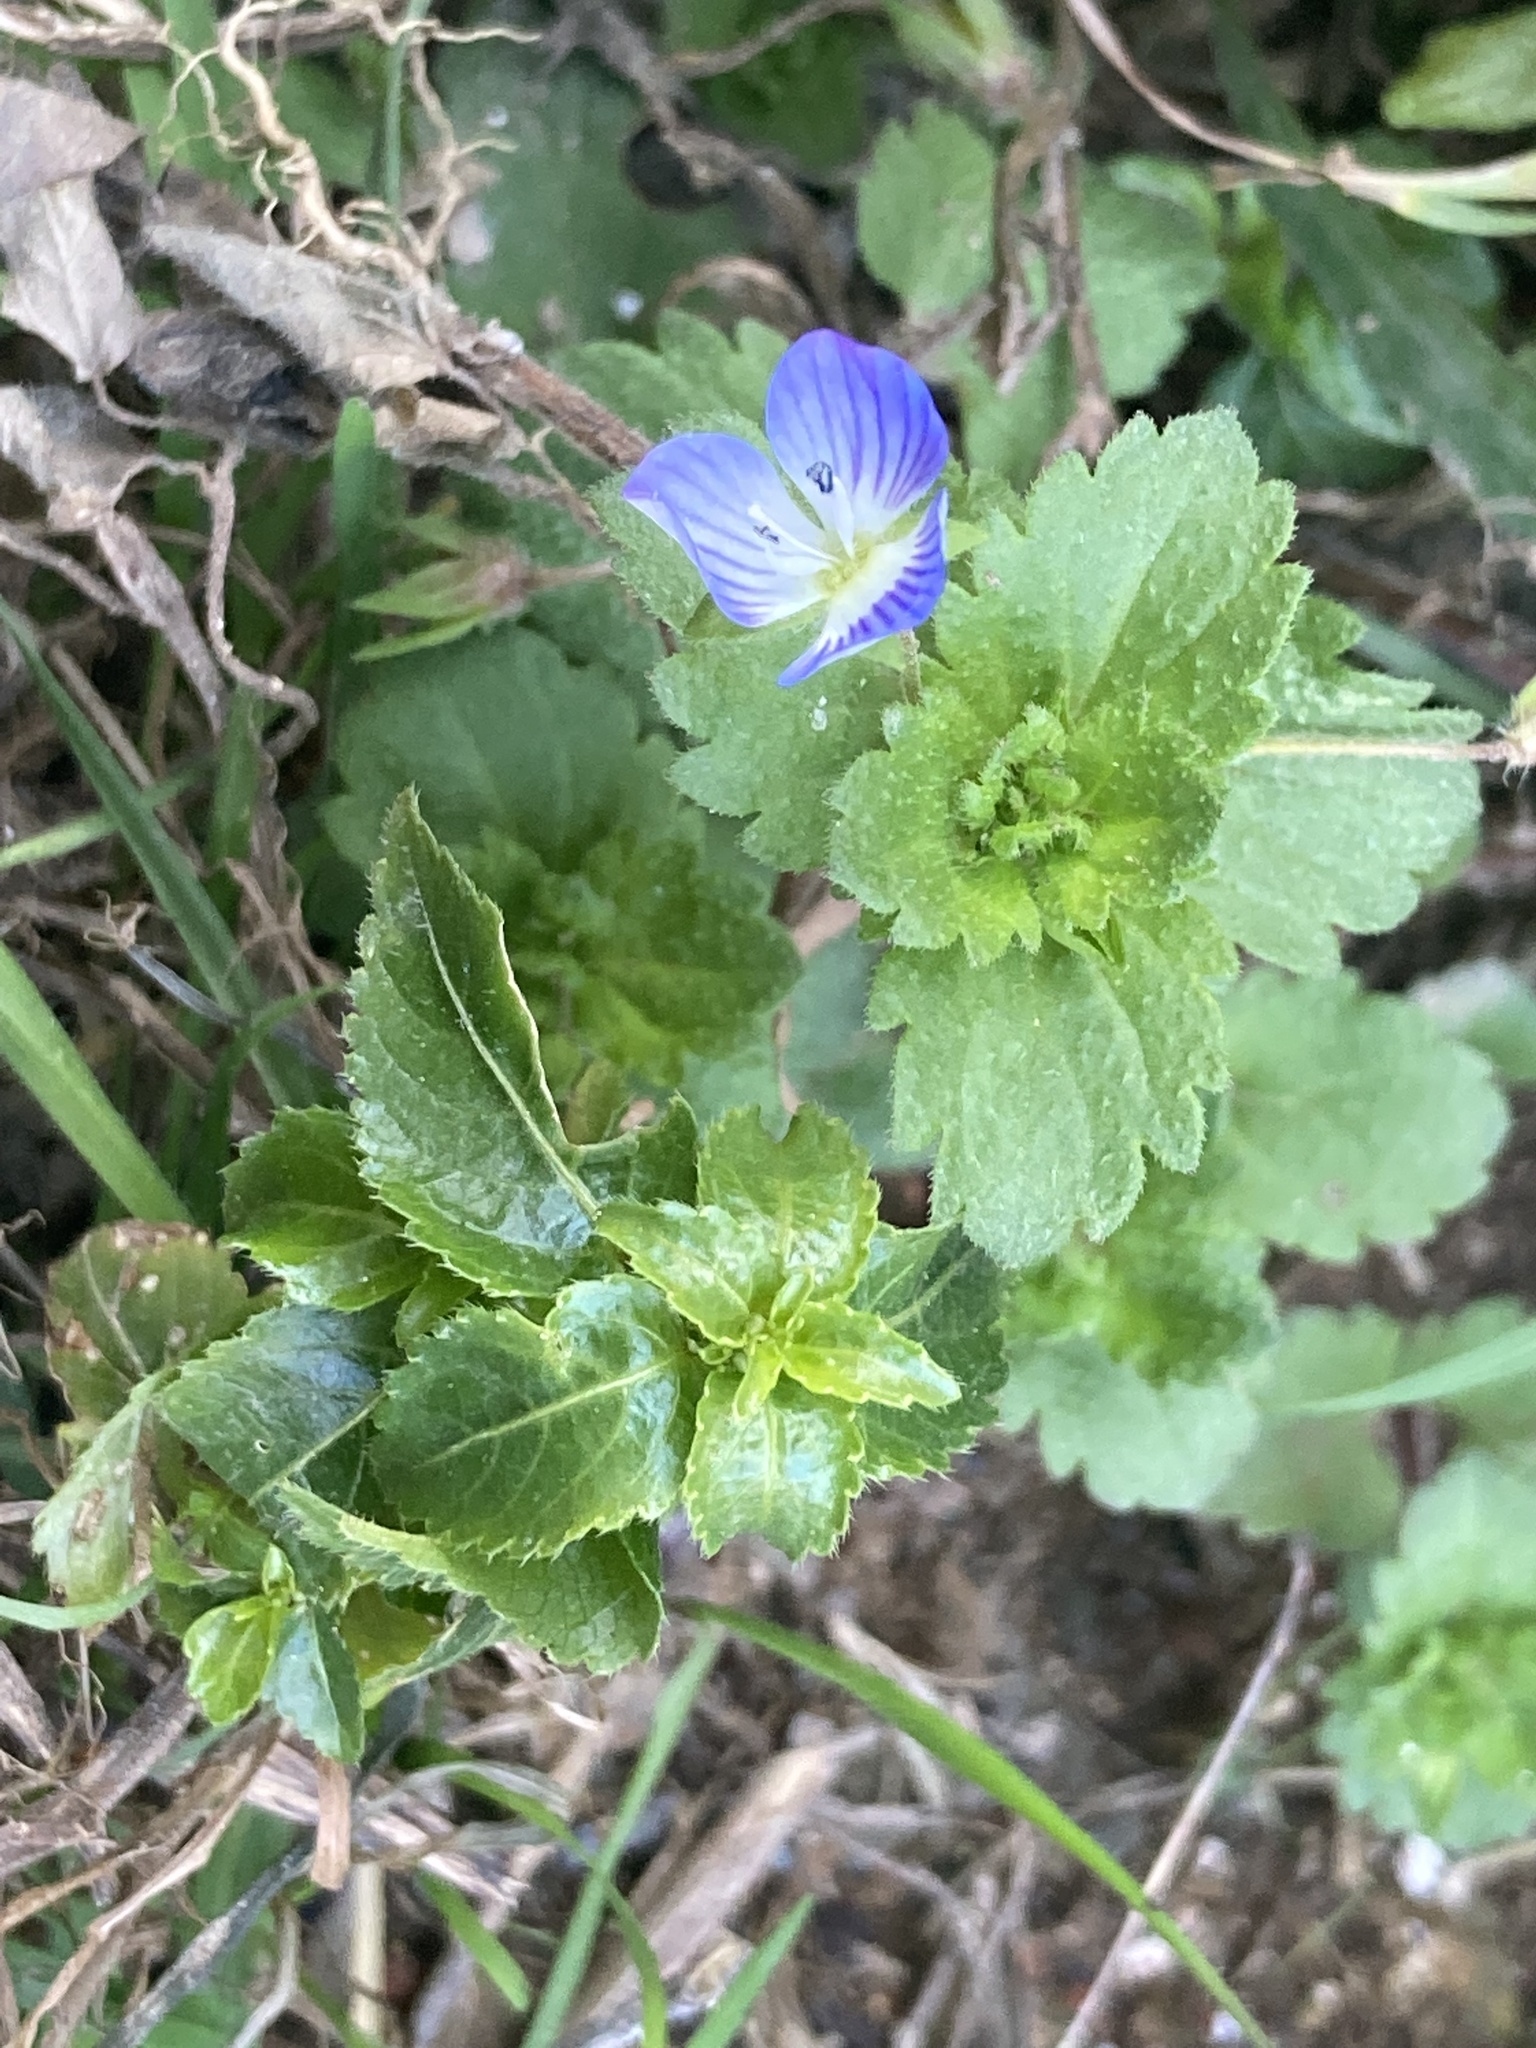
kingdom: Plantae
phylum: Tracheophyta
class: Magnoliopsida
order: Lamiales
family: Plantaginaceae
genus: Veronica
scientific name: Veronica persica
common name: Common field-speedwell
